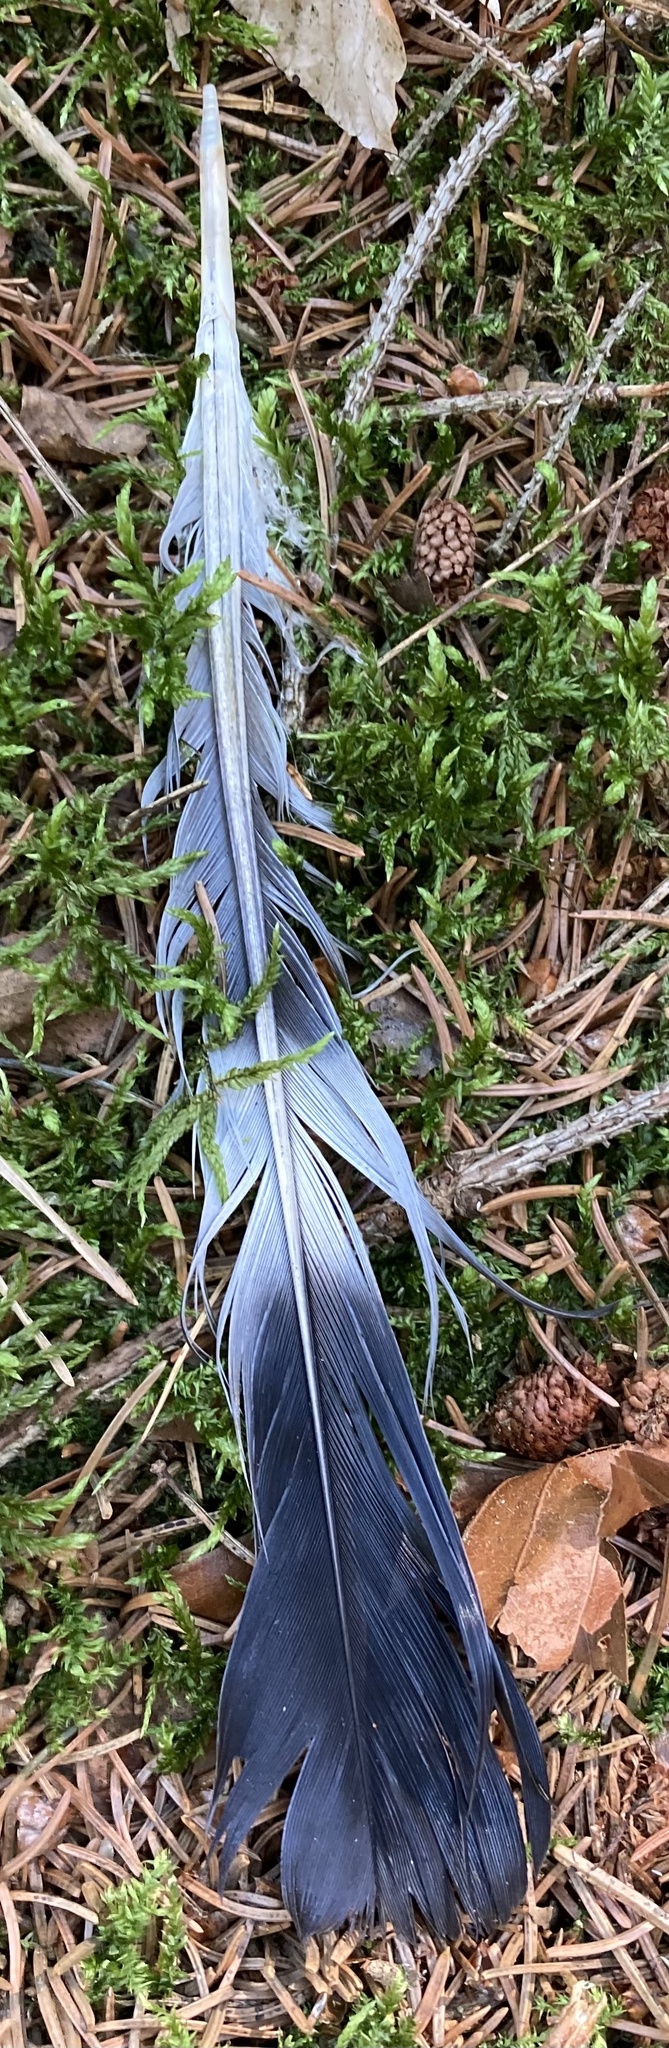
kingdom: Animalia
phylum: Chordata
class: Aves
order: Columbiformes
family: Columbidae
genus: Columba
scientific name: Columba palumbus
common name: Common wood pigeon
